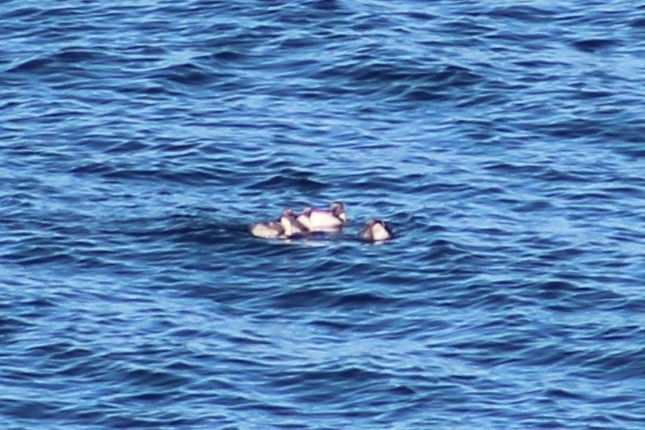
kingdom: Animalia
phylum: Chordata
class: Aves
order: Podicipediformes
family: Podicipedidae
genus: Podiceps
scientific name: Podiceps occipitalis
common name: Silvery grebe
